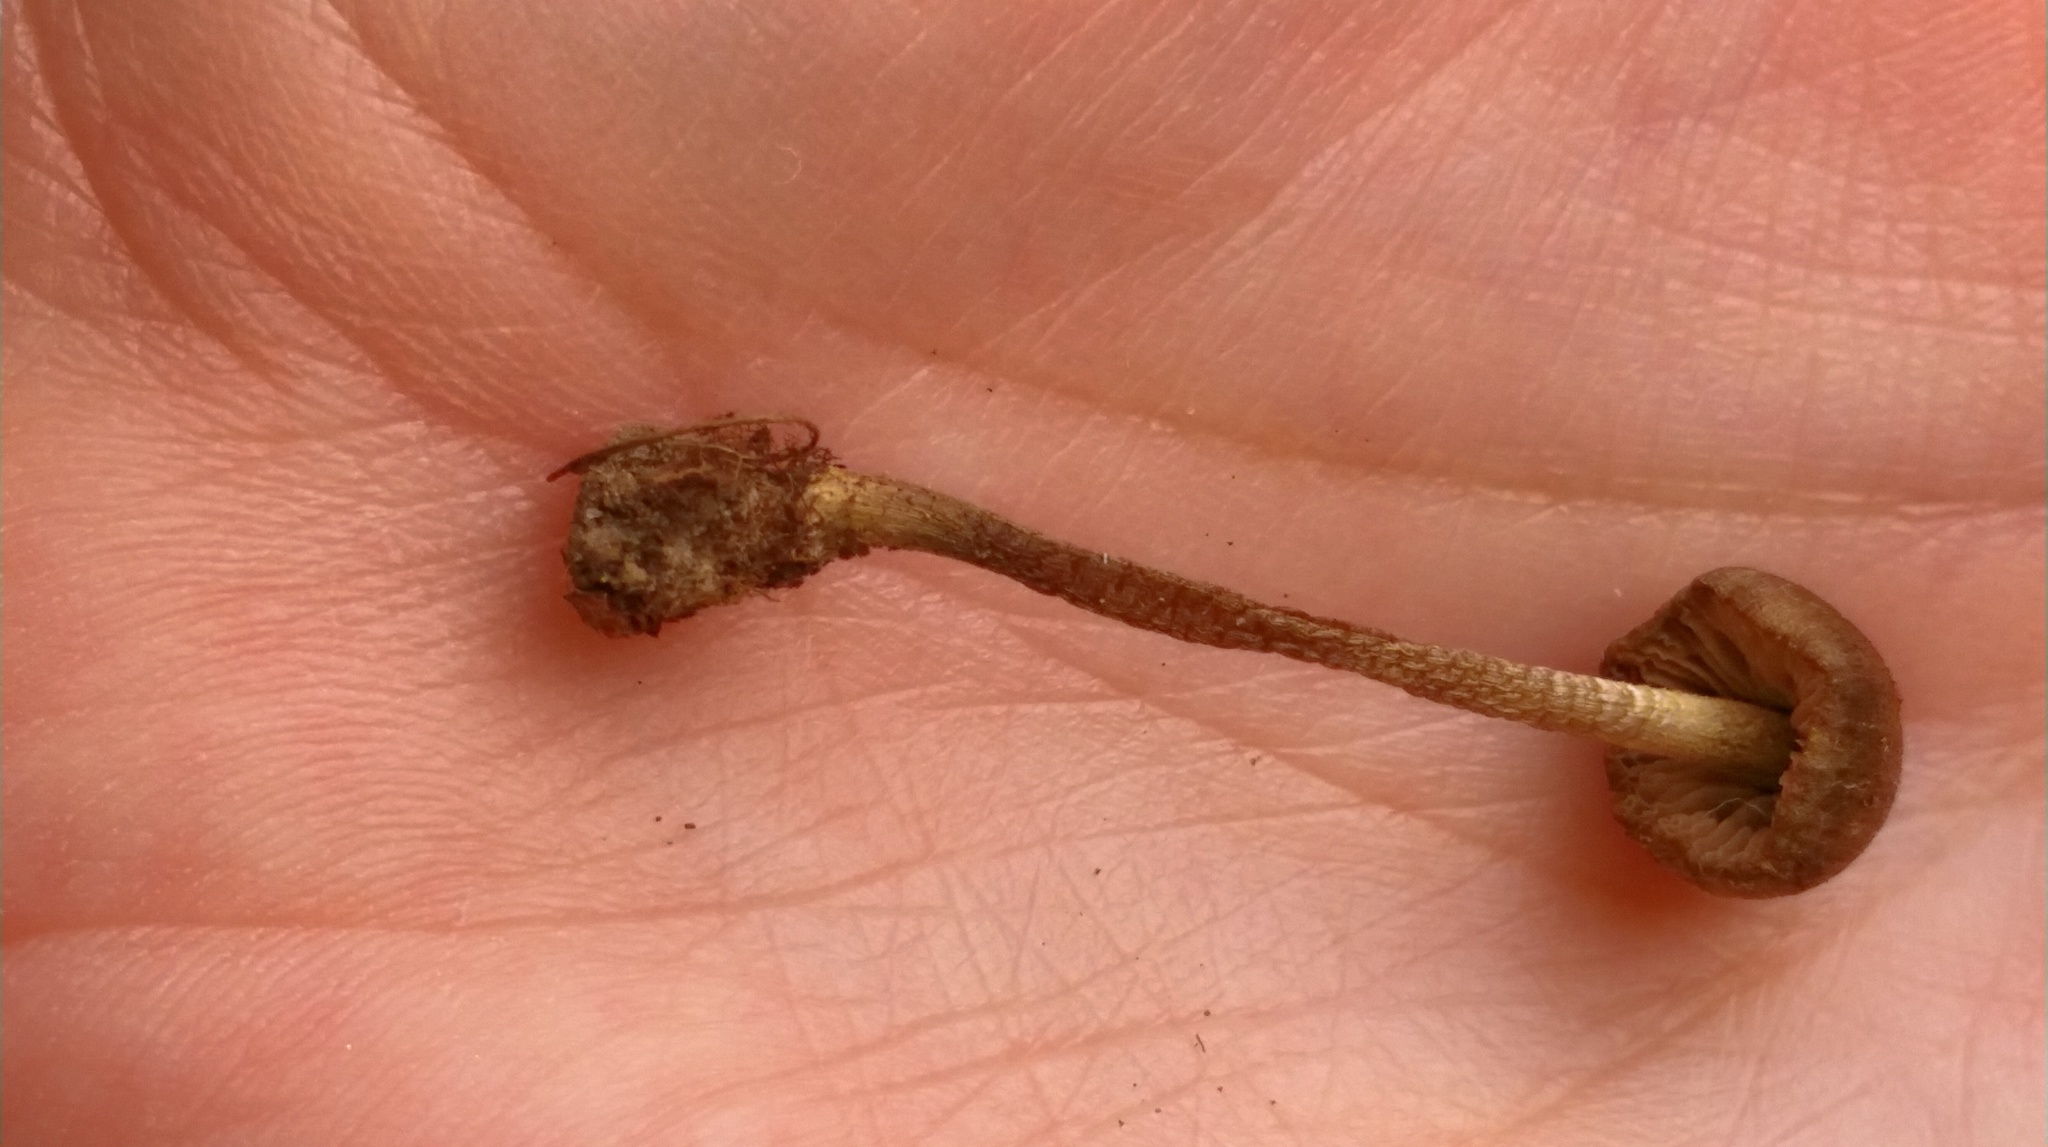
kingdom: Fungi
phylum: Basidiomycota
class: Agaricomycetes
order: Agaricales
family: Entolomataceae
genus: Entoloma
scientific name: Entoloma flavoviride
